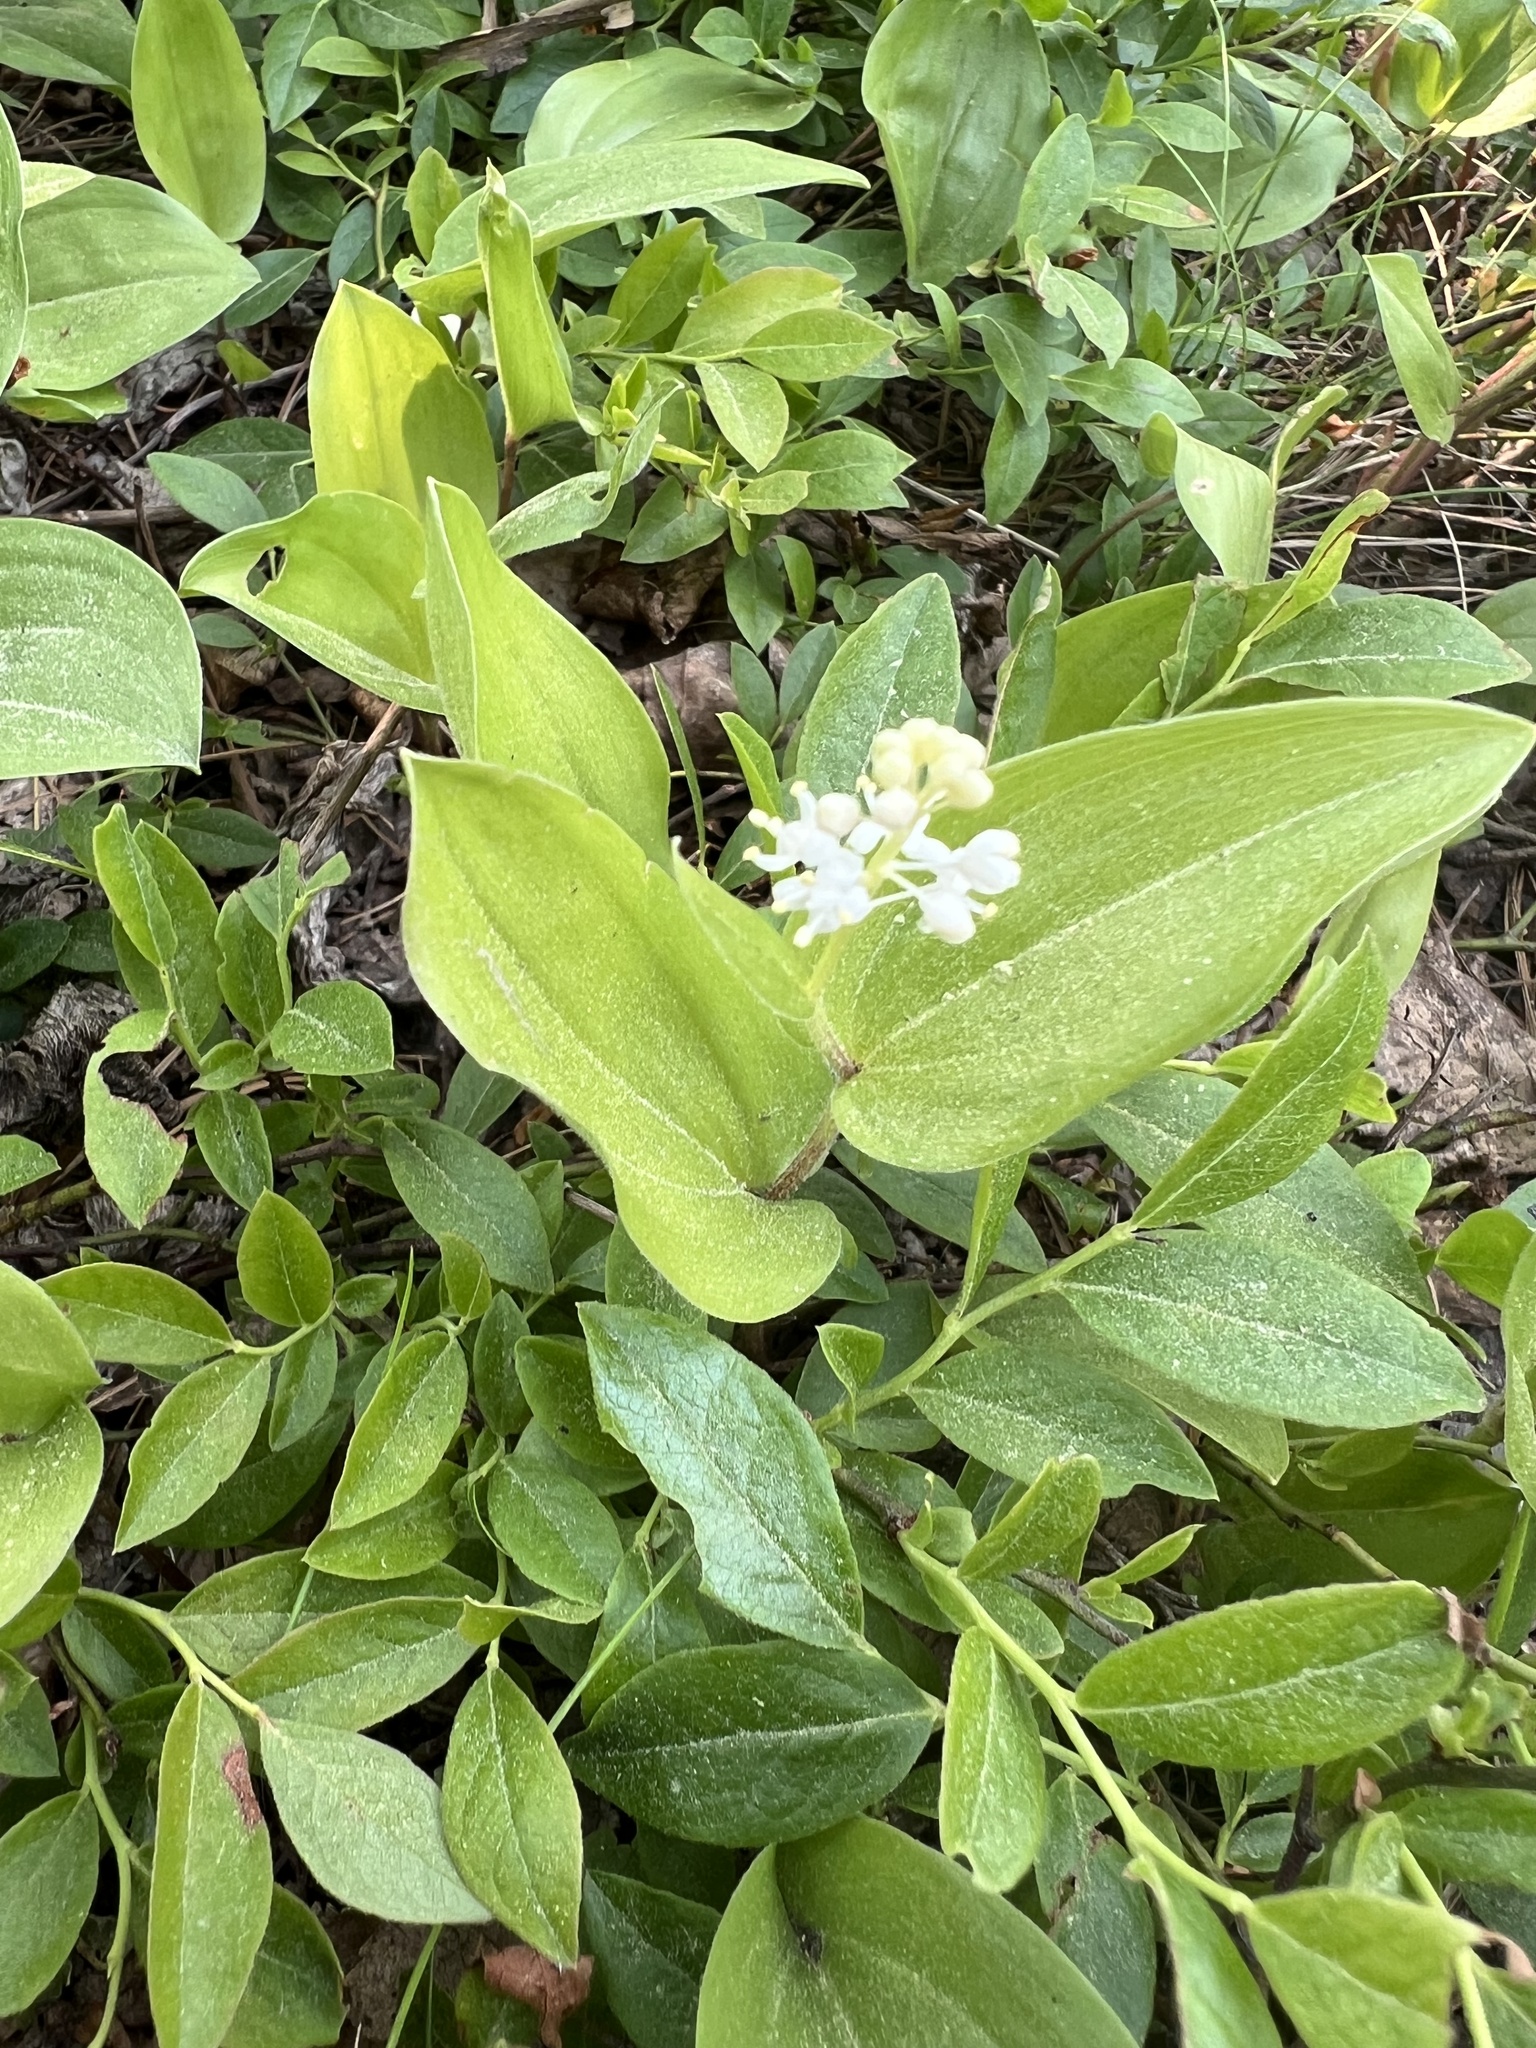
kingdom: Plantae
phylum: Tracheophyta
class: Liliopsida
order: Asparagales
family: Asparagaceae
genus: Maianthemum
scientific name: Maianthemum canadense
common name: False lily-of-the-valley
